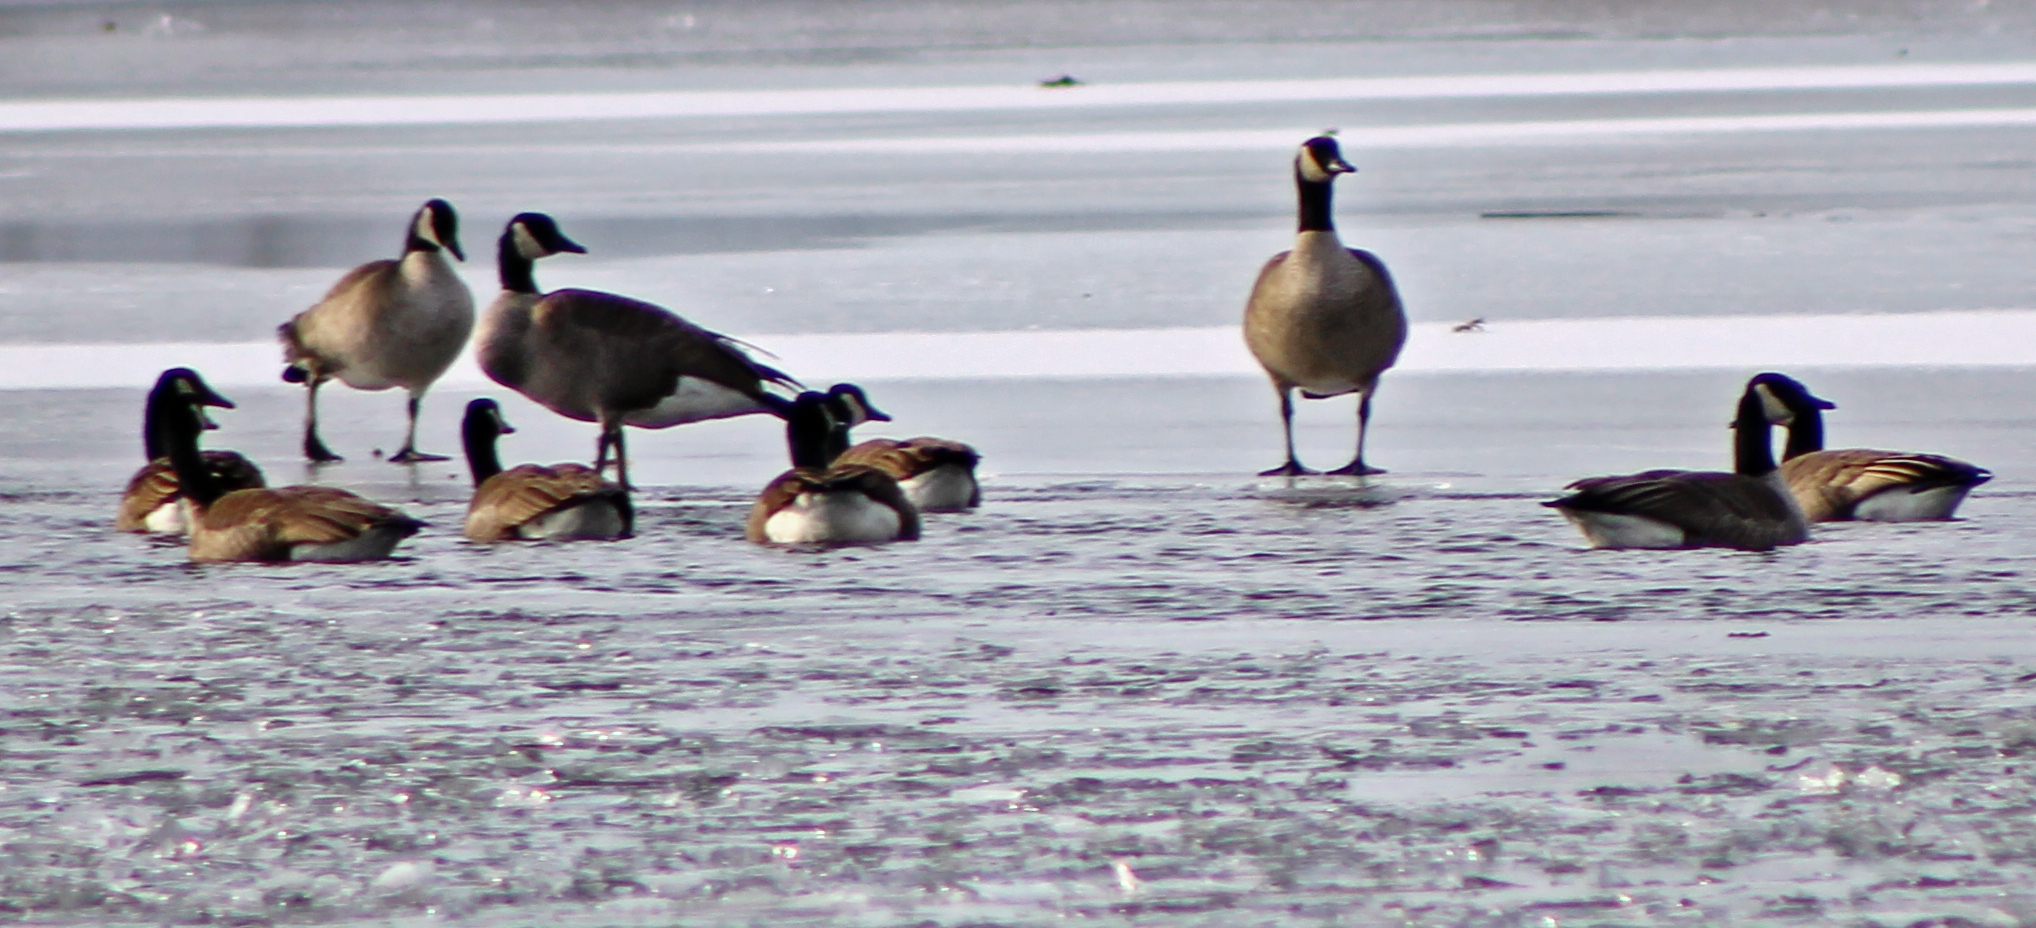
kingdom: Animalia
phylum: Chordata
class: Aves
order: Anseriformes
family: Anatidae
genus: Branta
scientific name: Branta canadensis
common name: Canada goose
